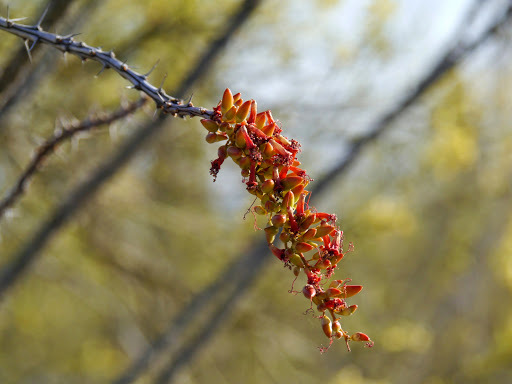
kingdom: Plantae
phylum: Tracheophyta
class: Magnoliopsida
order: Ericales
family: Fouquieriaceae
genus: Fouquieria
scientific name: Fouquieria splendens
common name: Vine-cactus
